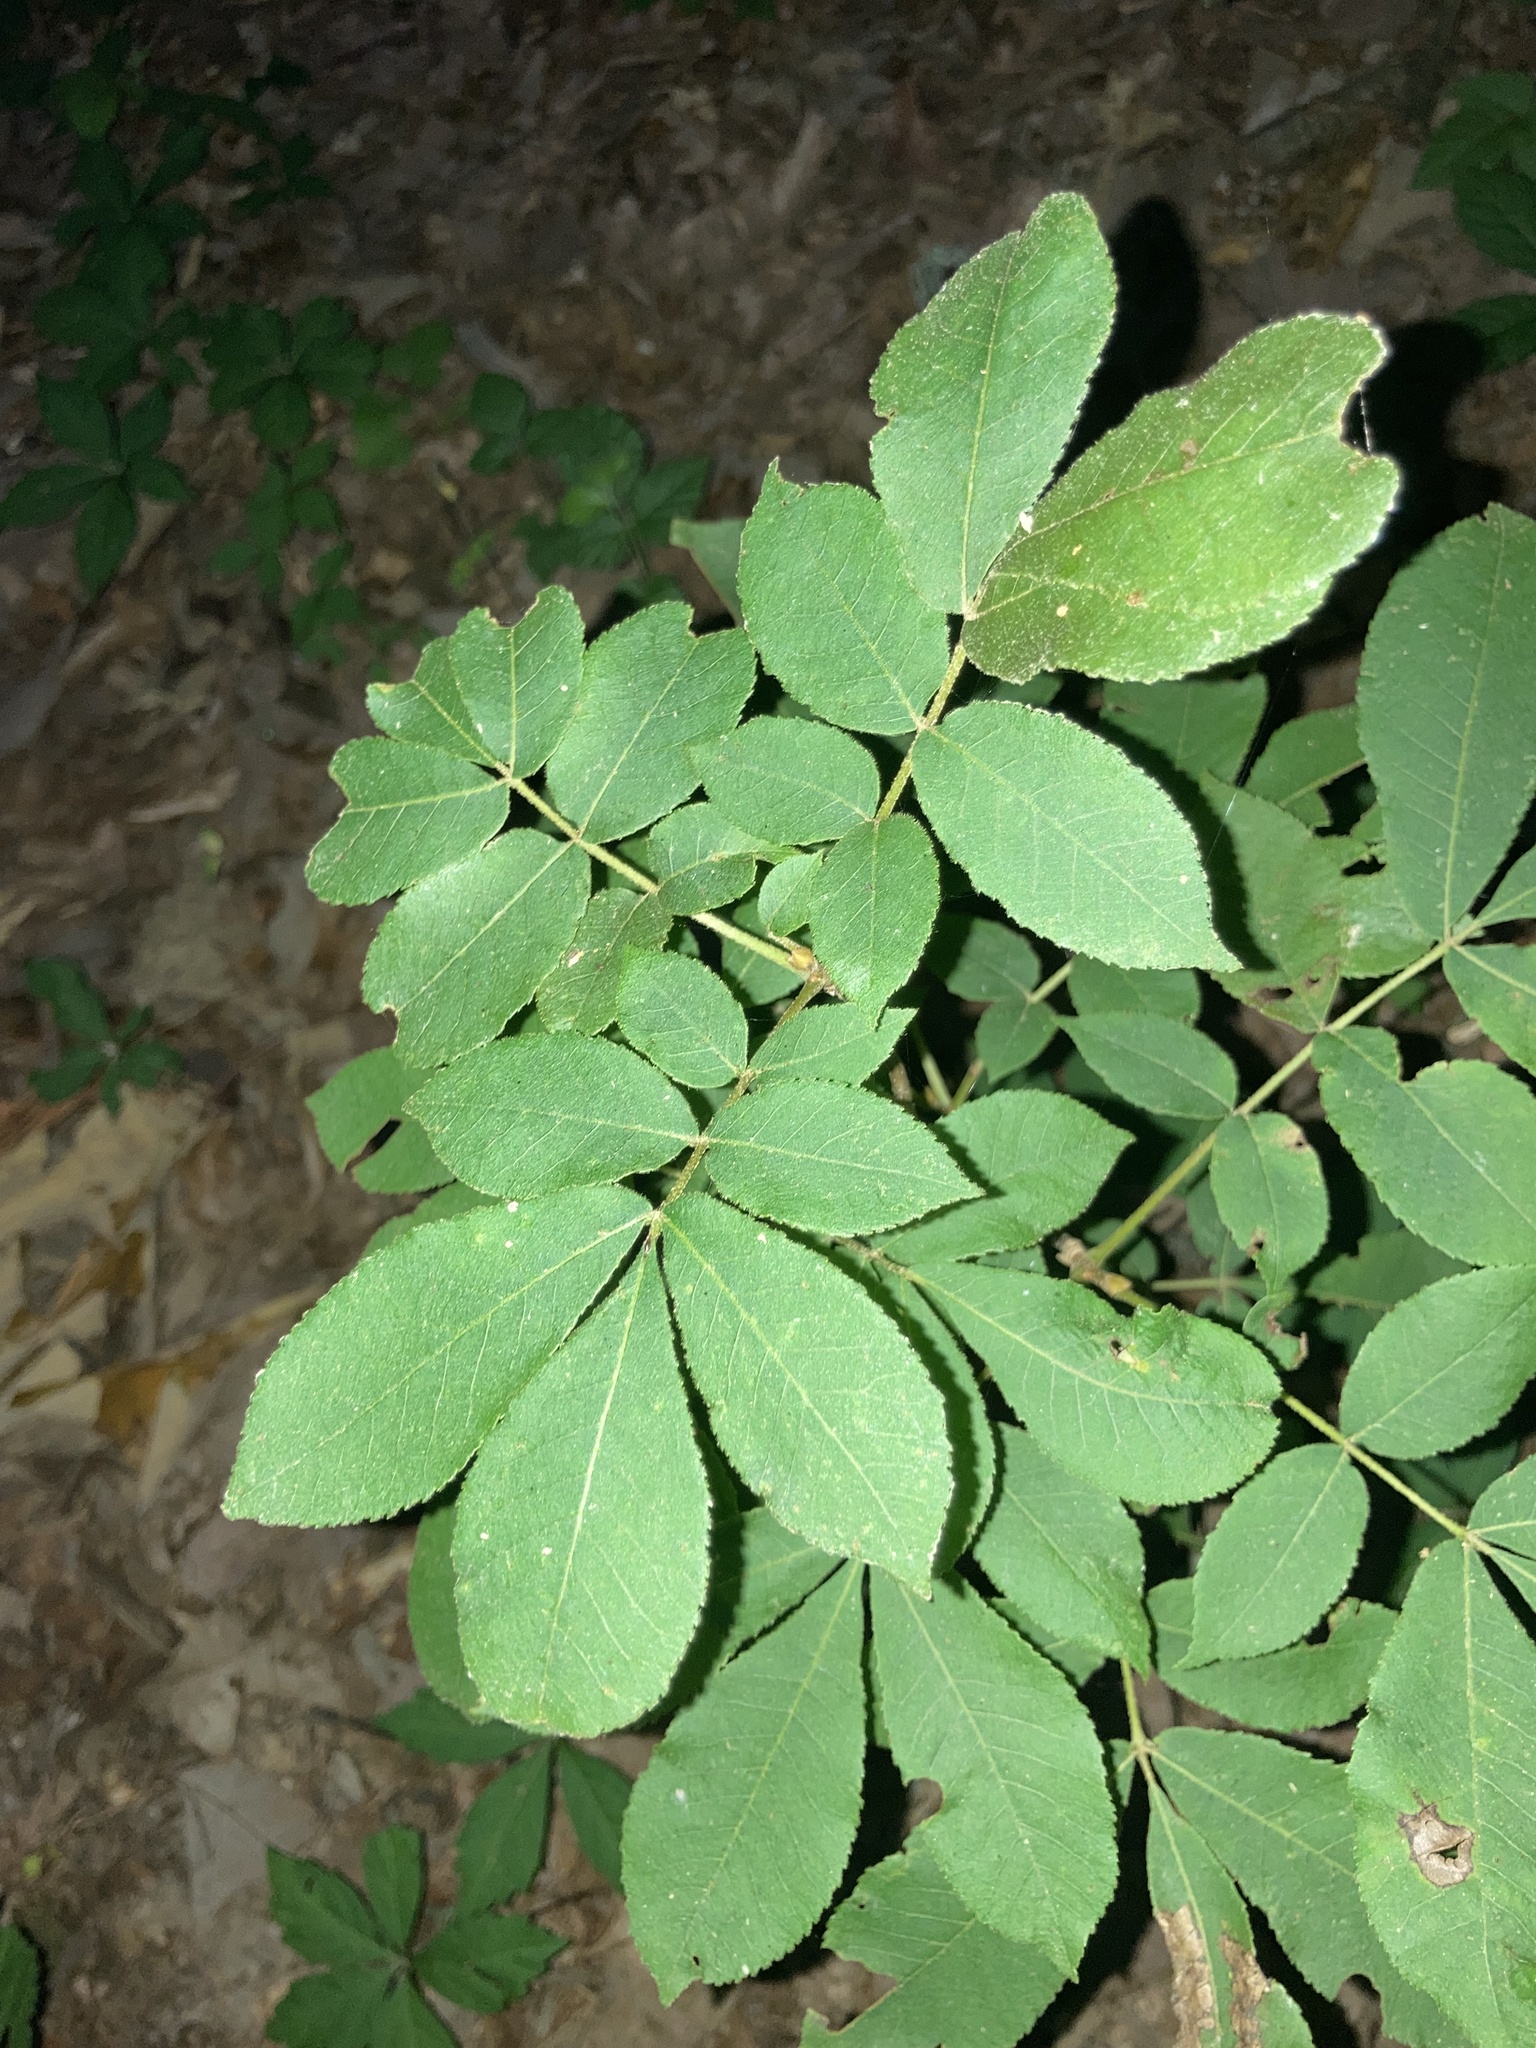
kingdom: Plantae
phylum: Tracheophyta
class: Magnoliopsida
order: Fagales
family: Juglandaceae
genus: Carya
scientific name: Carya alba
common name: Mockernut hickory
